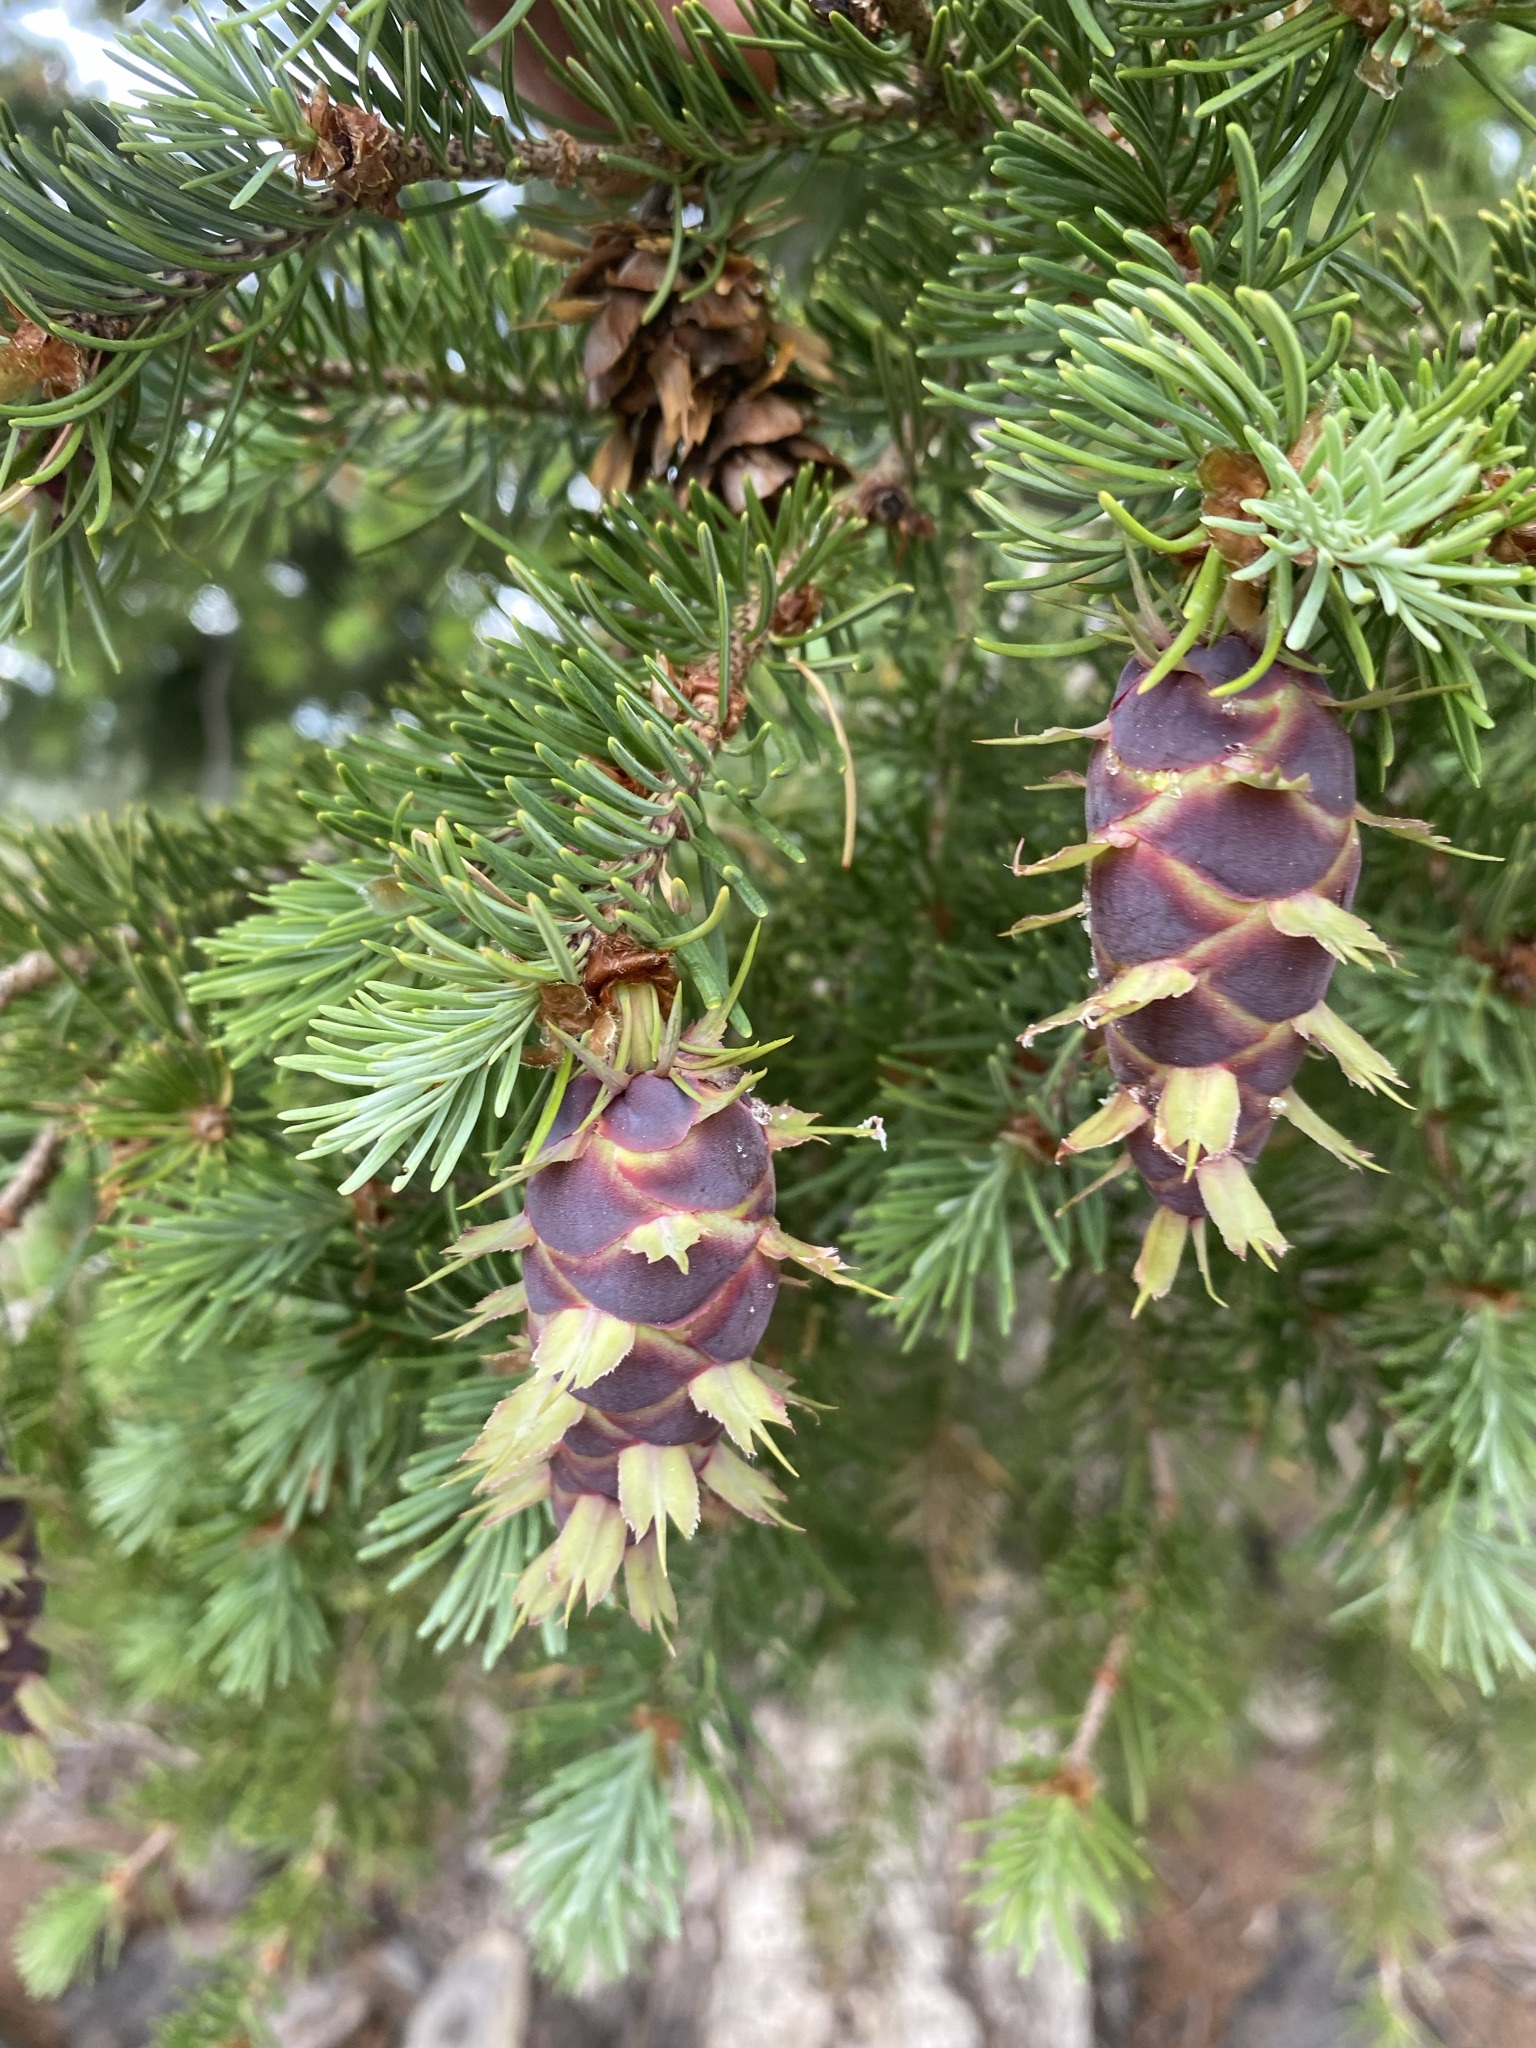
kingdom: Plantae
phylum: Tracheophyta
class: Pinopsida
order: Pinales
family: Pinaceae
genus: Pseudotsuga
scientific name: Pseudotsuga menziesii
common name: Douglas fir
